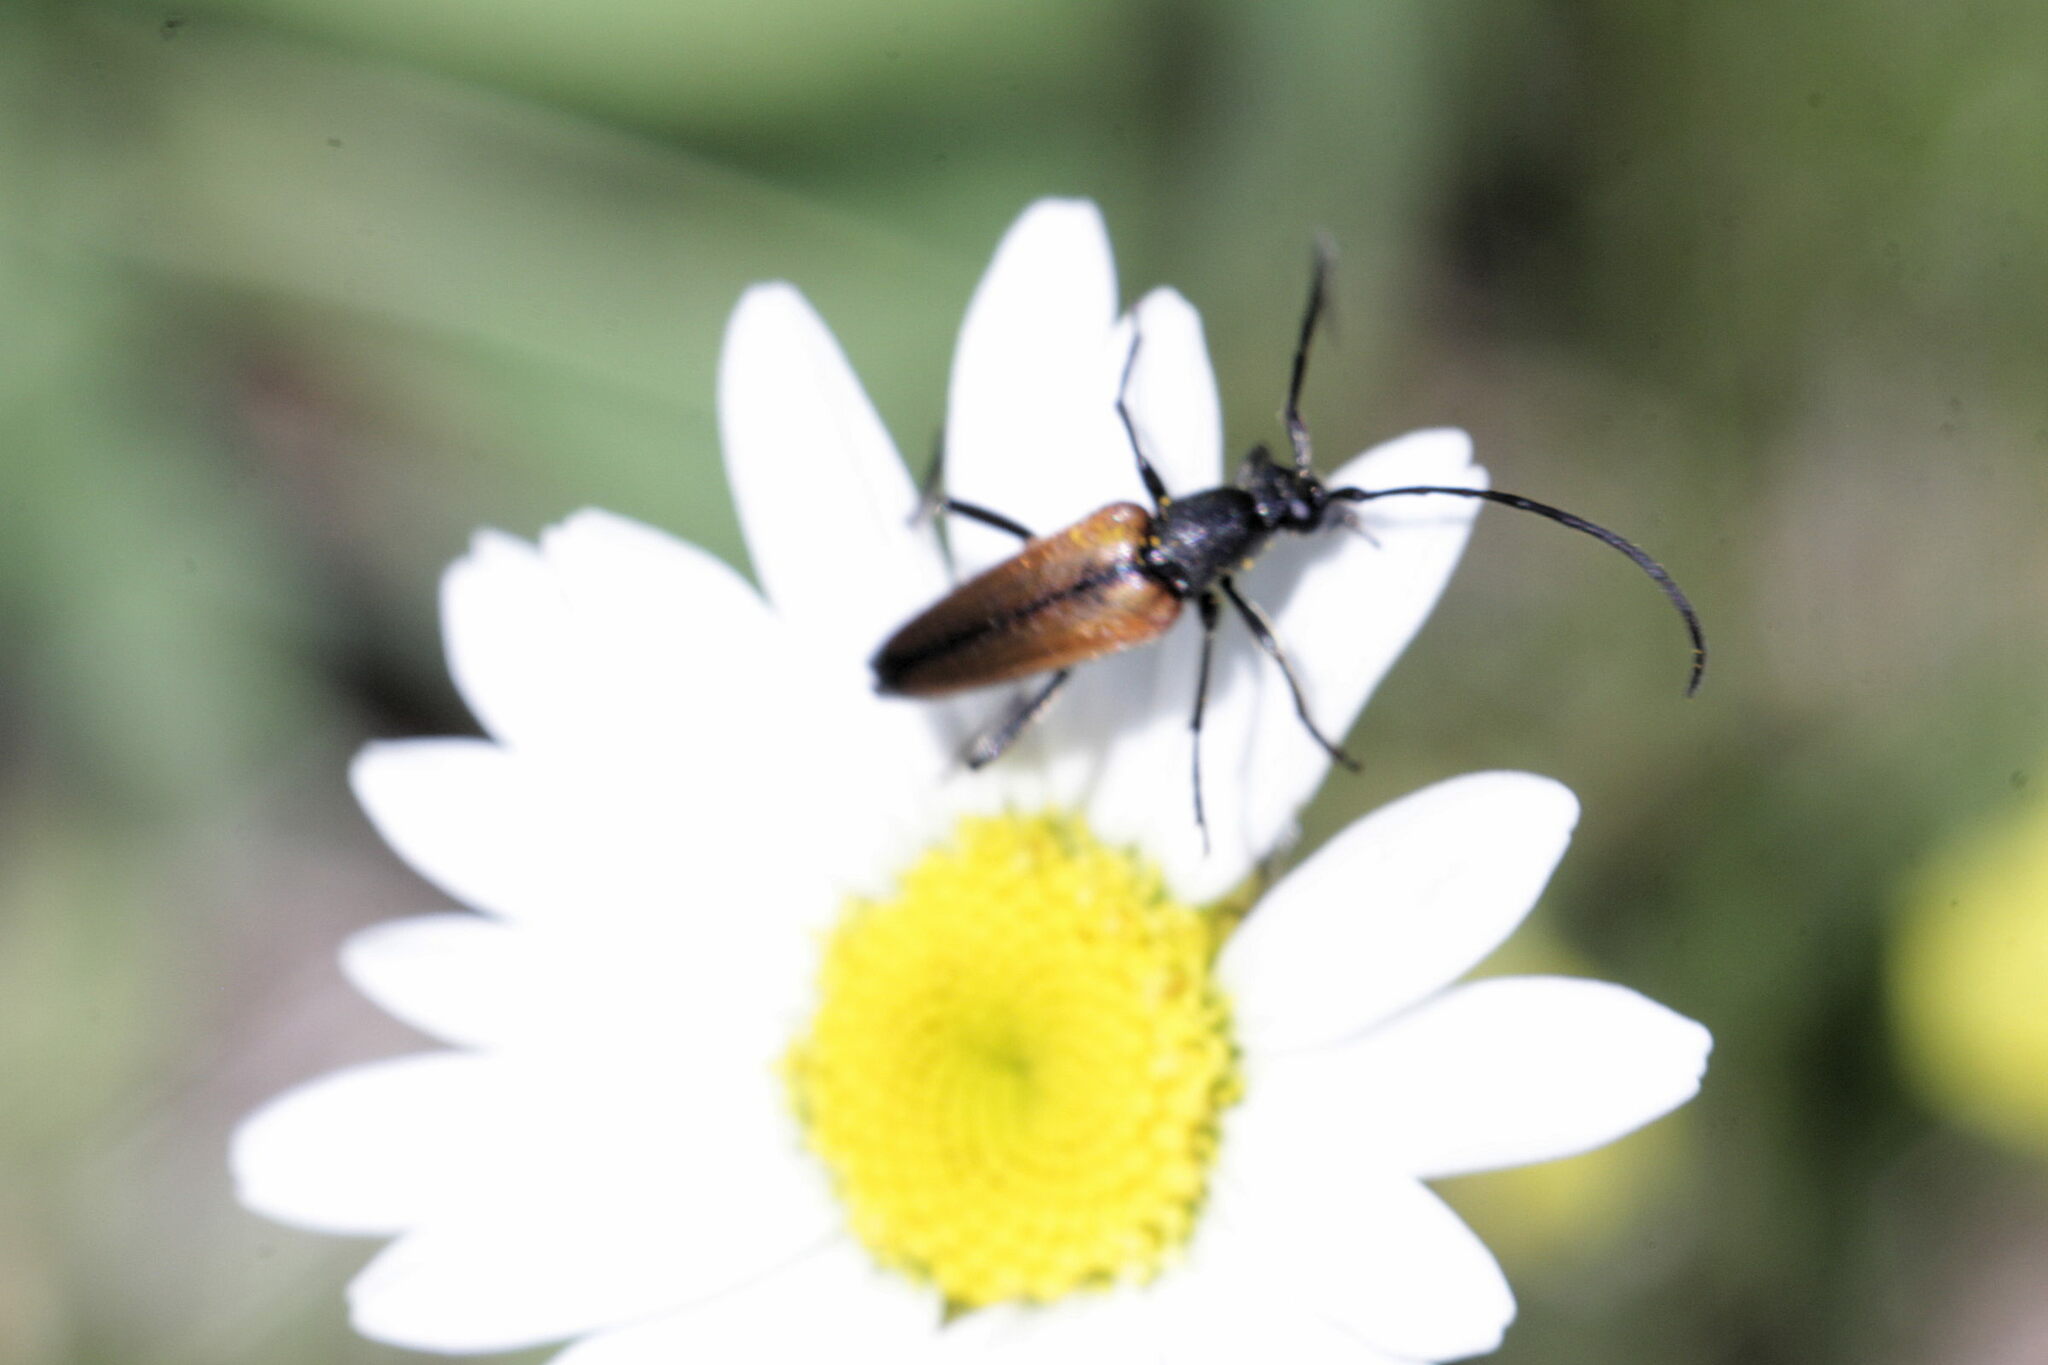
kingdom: Animalia
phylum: Arthropoda
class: Insecta
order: Coleoptera
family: Cerambycidae
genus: Stenurella
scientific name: Stenurella melanura
